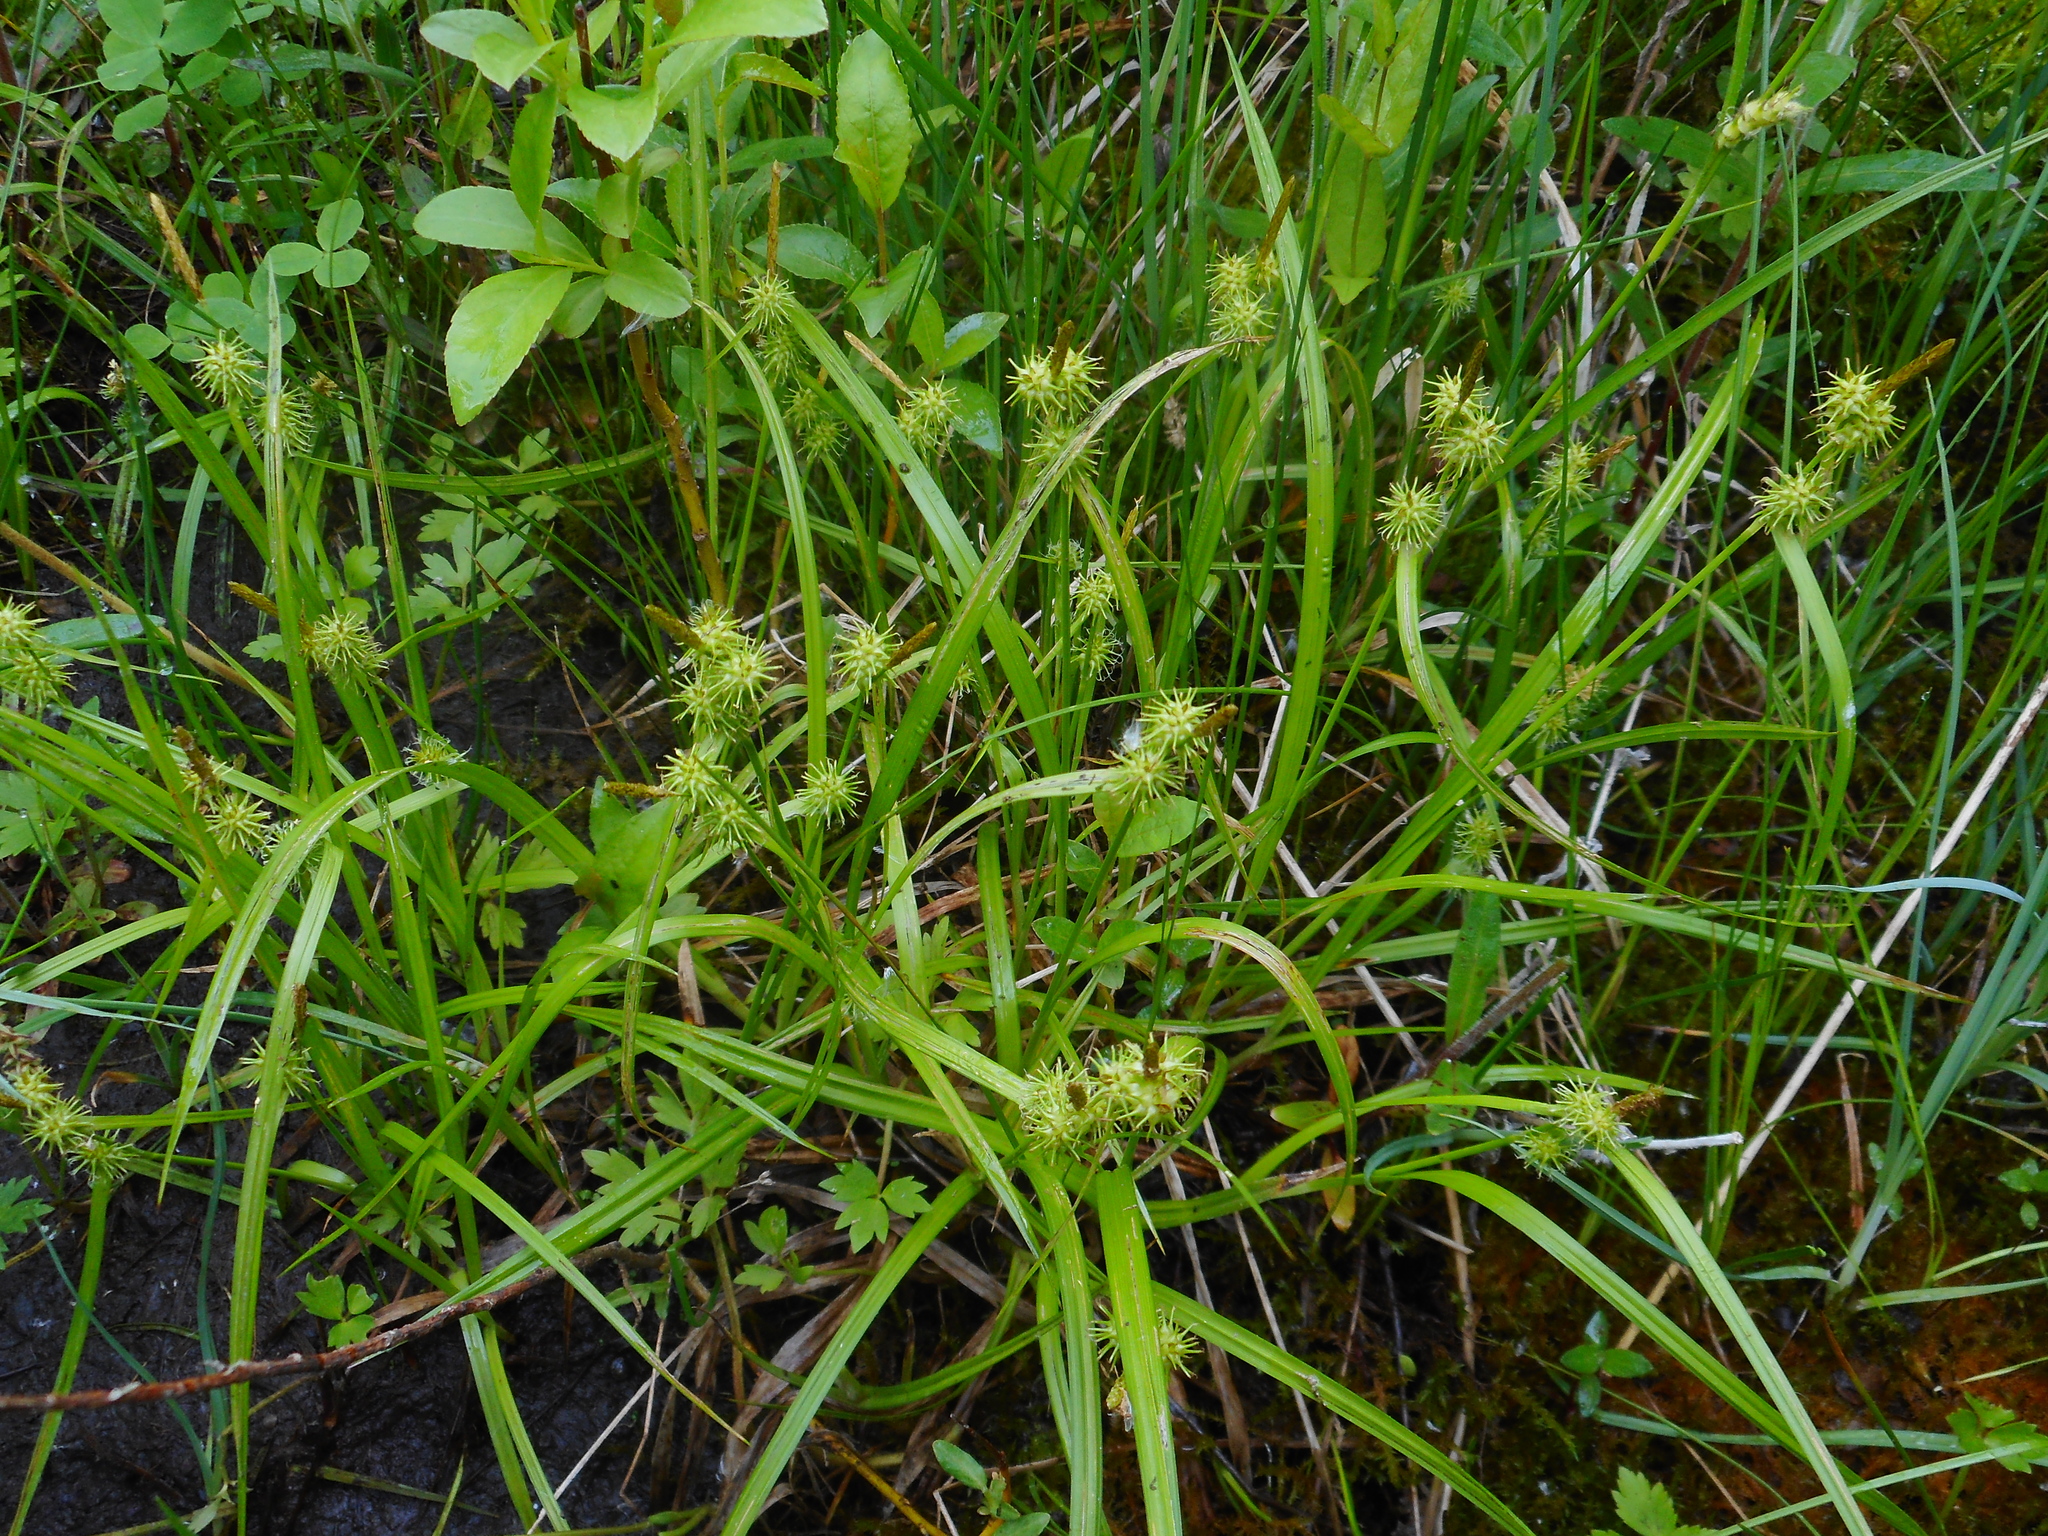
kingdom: Plantae
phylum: Tracheophyta
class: Liliopsida
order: Poales
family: Cyperaceae
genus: Carex
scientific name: Carex flava
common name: Large yellow-sedge
